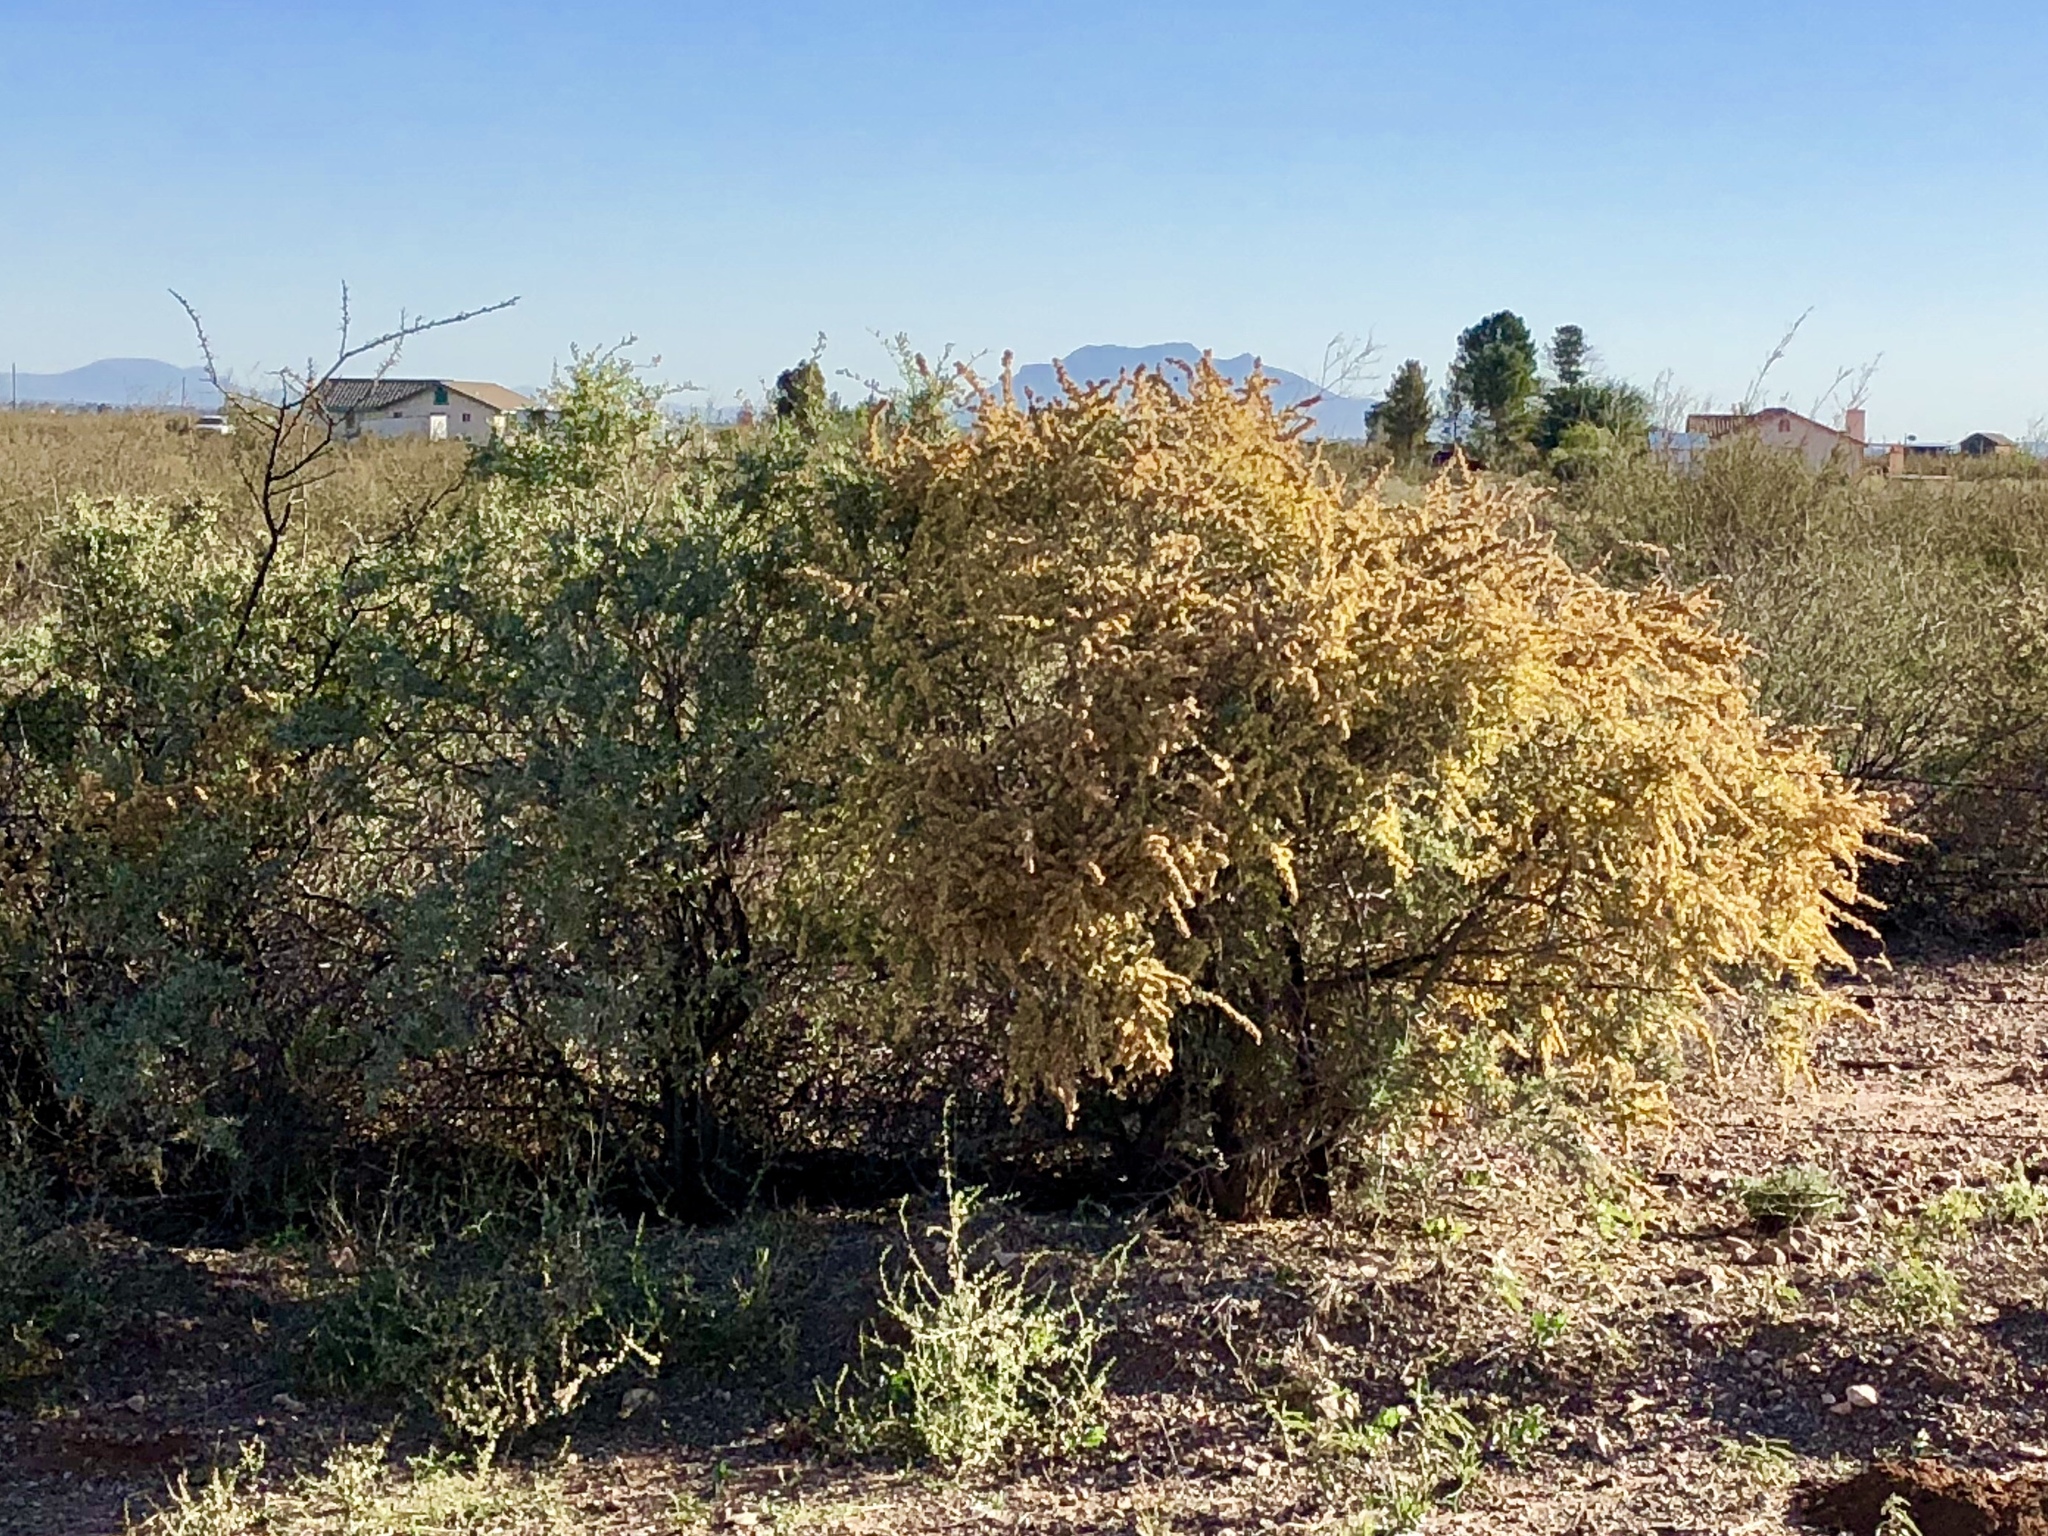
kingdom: Plantae
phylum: Tracheophyta
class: Magnoliopsida
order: Caryophyllales
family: Amaranthaceae
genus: Atriplex
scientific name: Atriplex canescens
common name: Four-wing saltbush
